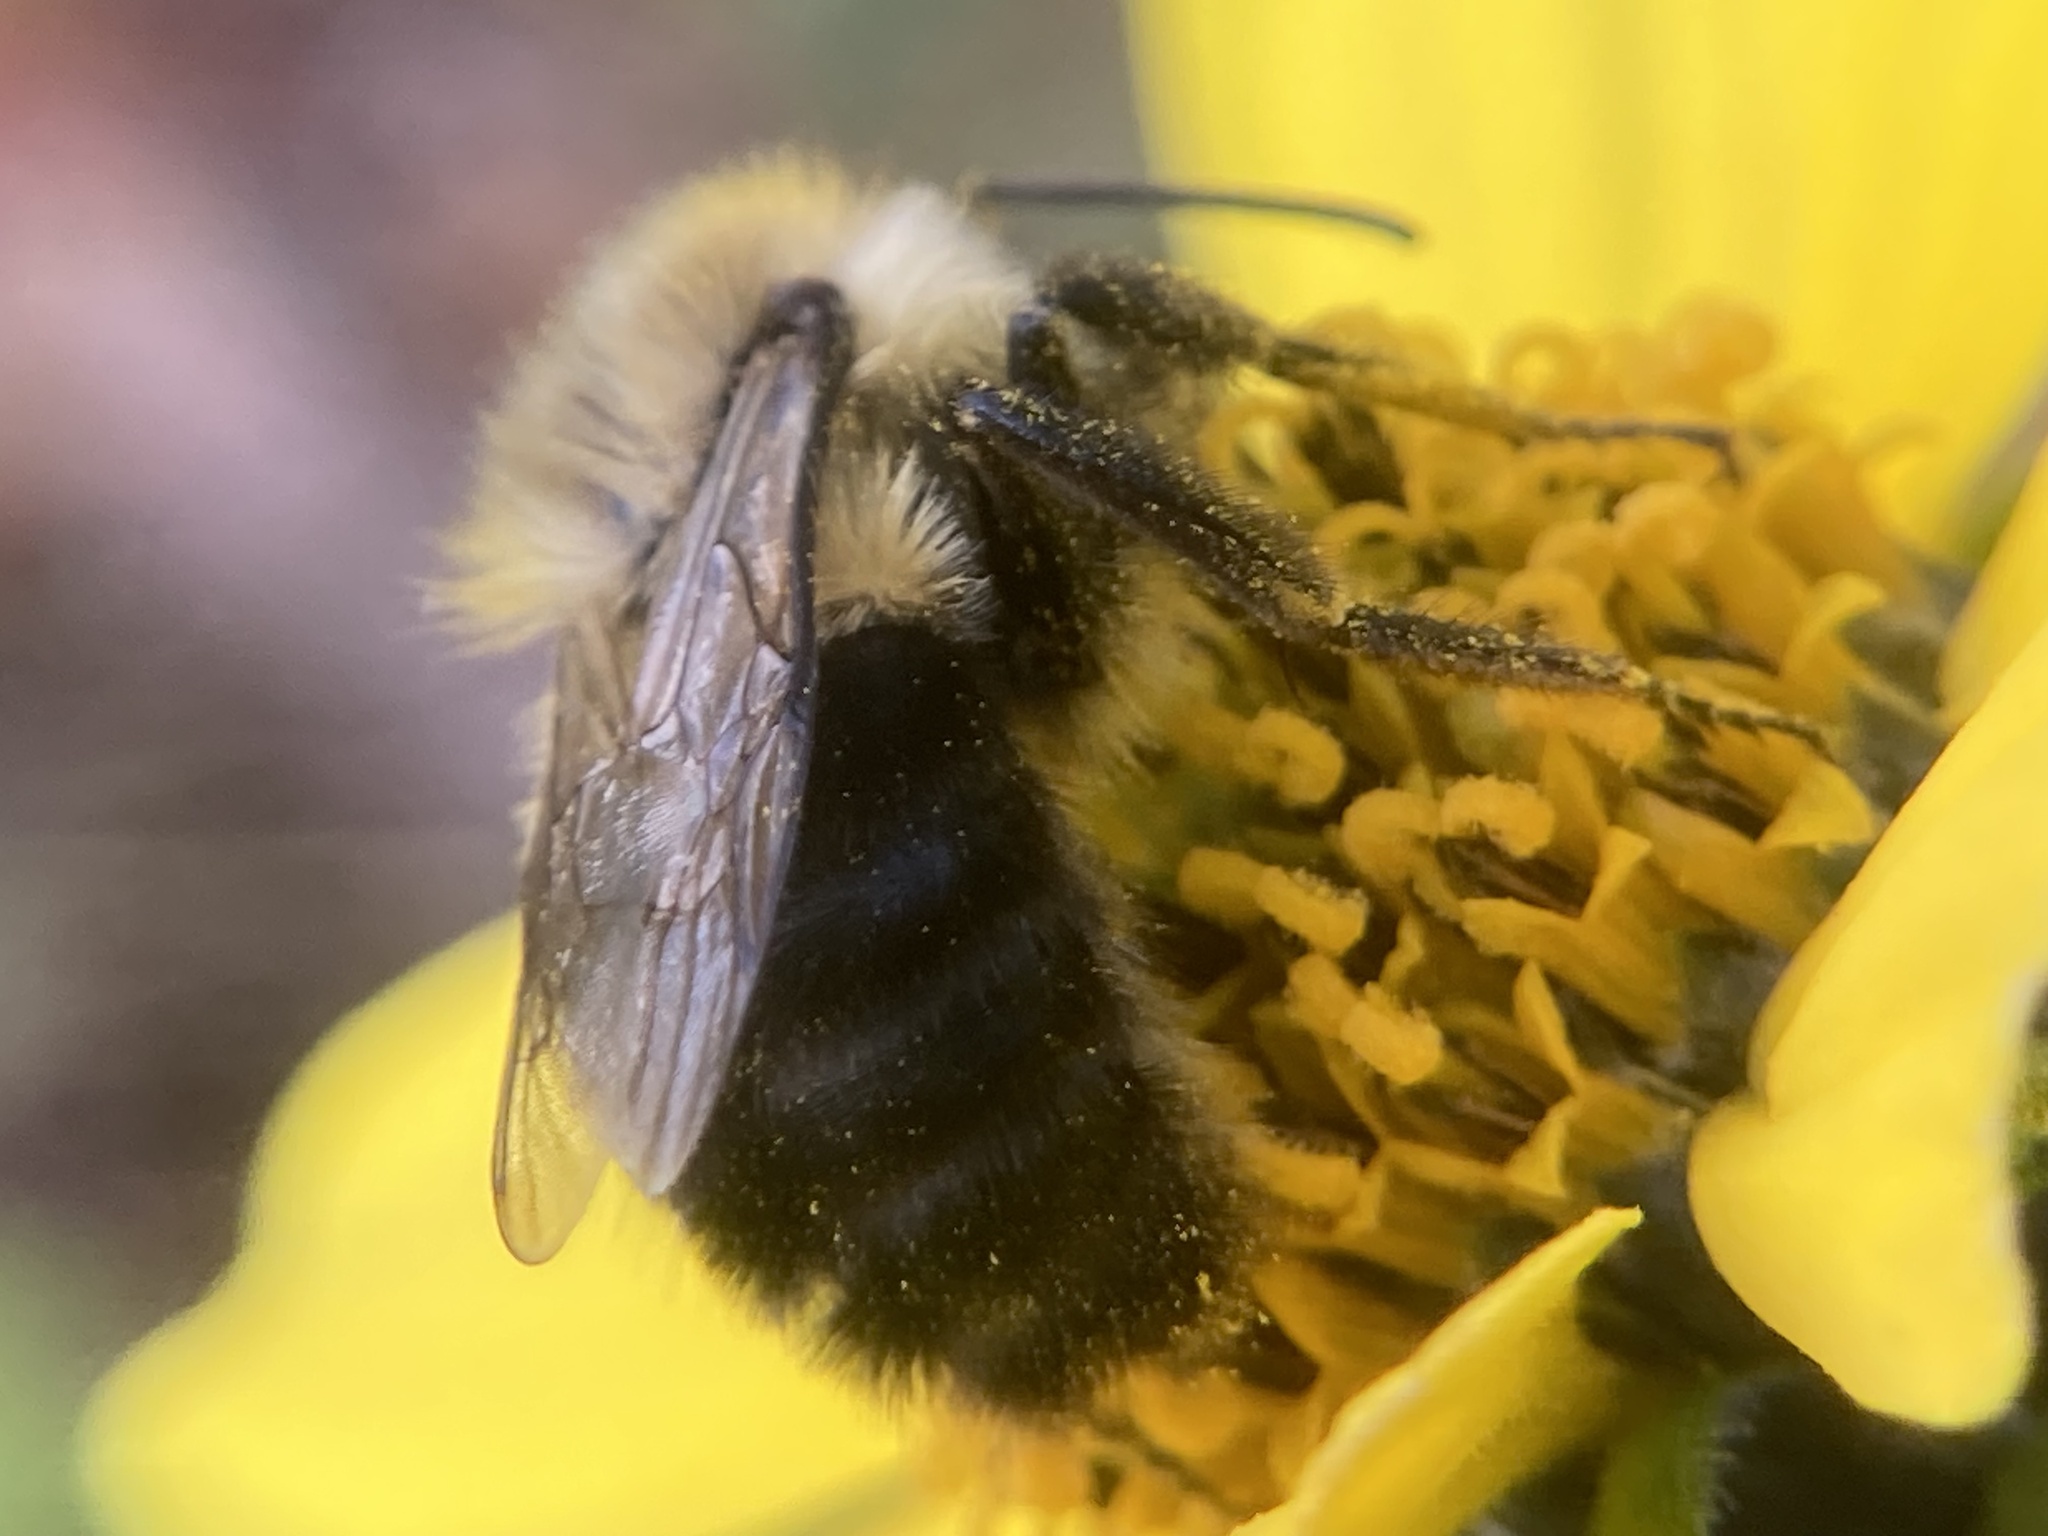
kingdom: Animalia
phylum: Arthropoda
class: Insecta
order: Hymenoptera
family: Apidae
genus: Bombus
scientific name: Bombus impatiens
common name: Common eastern bumble bee
